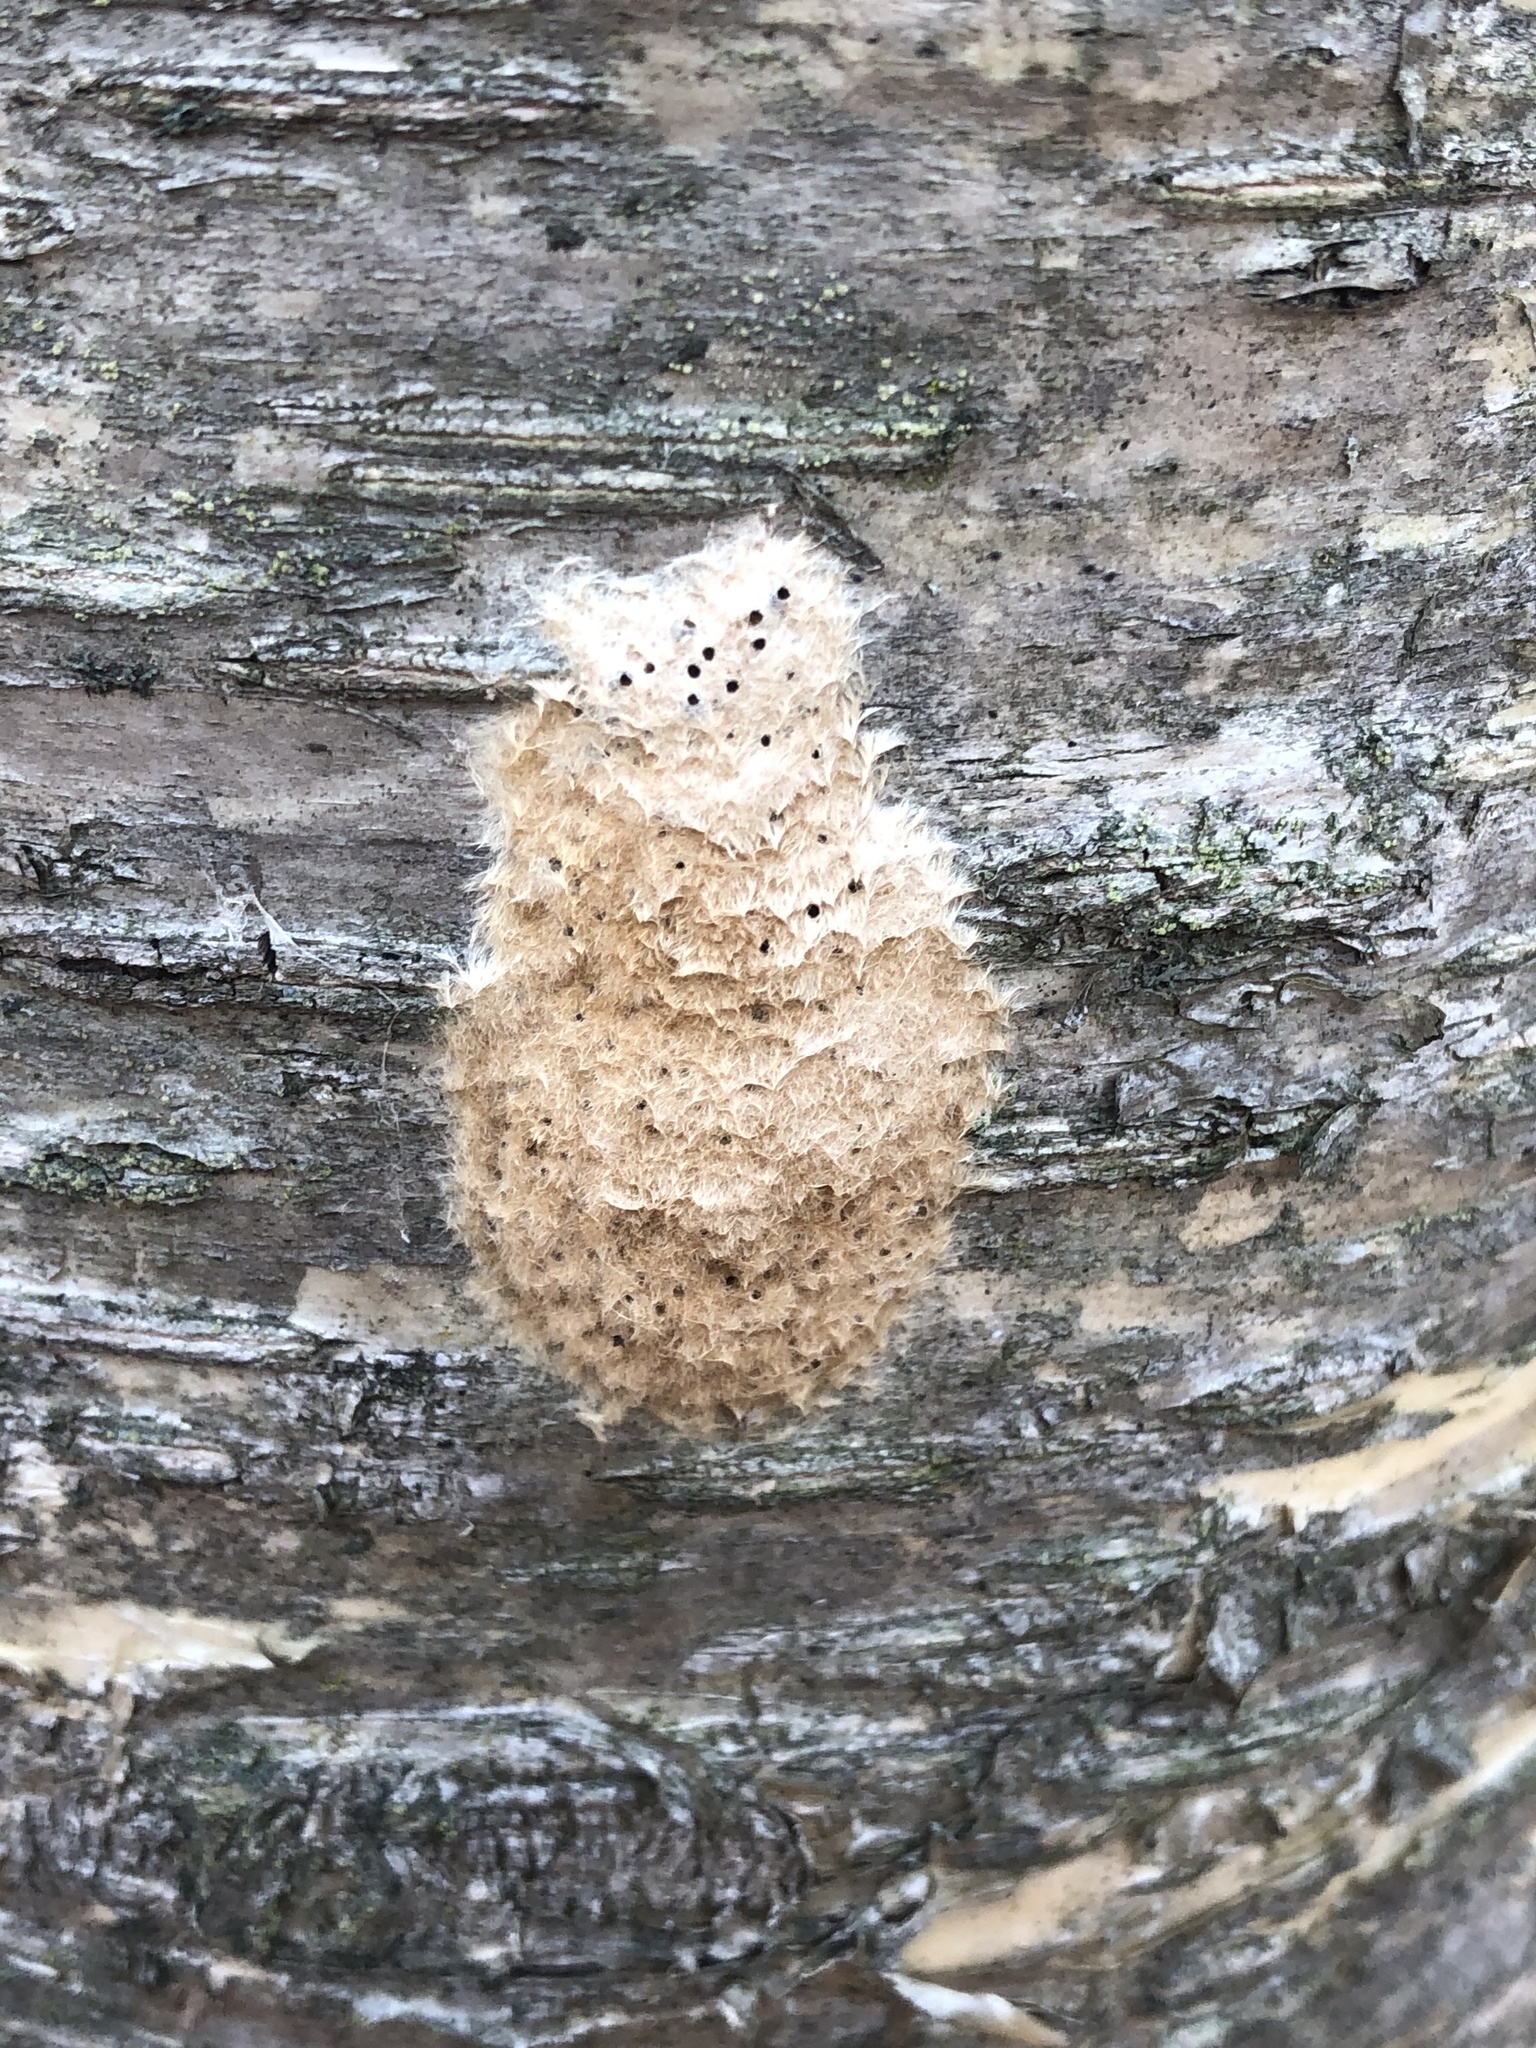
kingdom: Animalia
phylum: Arthropoda
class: Insecta
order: Lepidoptera
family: Erebidae
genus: Lymantria
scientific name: Lymantria dispar
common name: Gypsy moth
